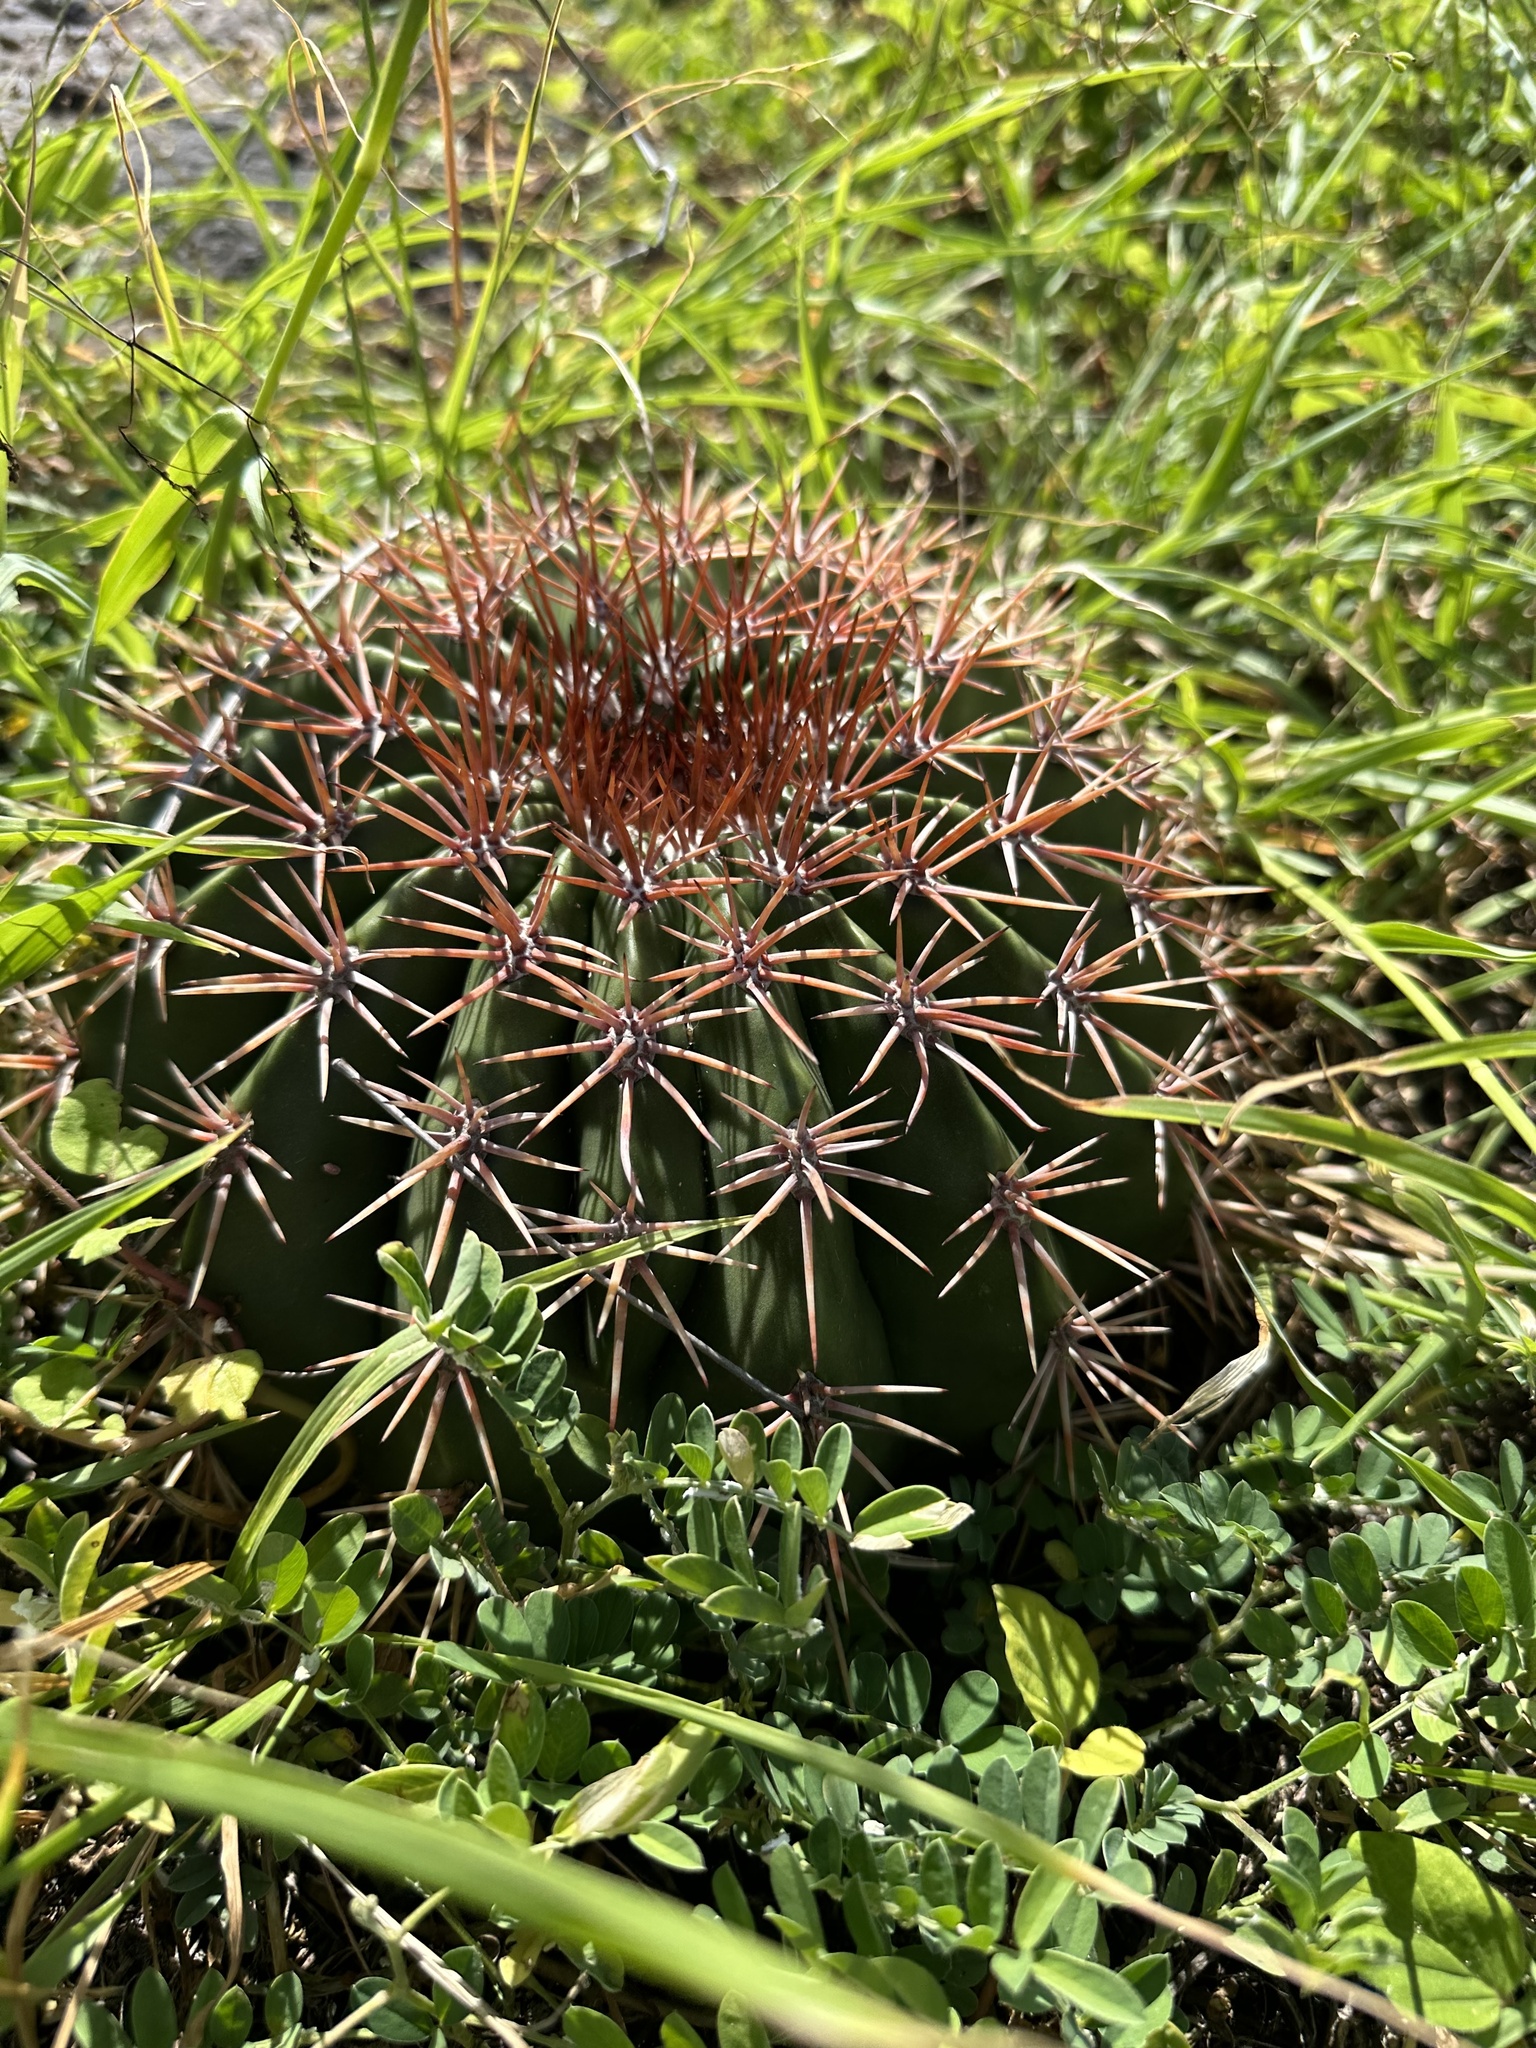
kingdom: Plantae
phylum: Tracheophyta
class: Magnoliopsida
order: Caryophyllales
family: Cactaceae
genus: Melocactus
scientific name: Melocactus intortus
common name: Barrel cactus
